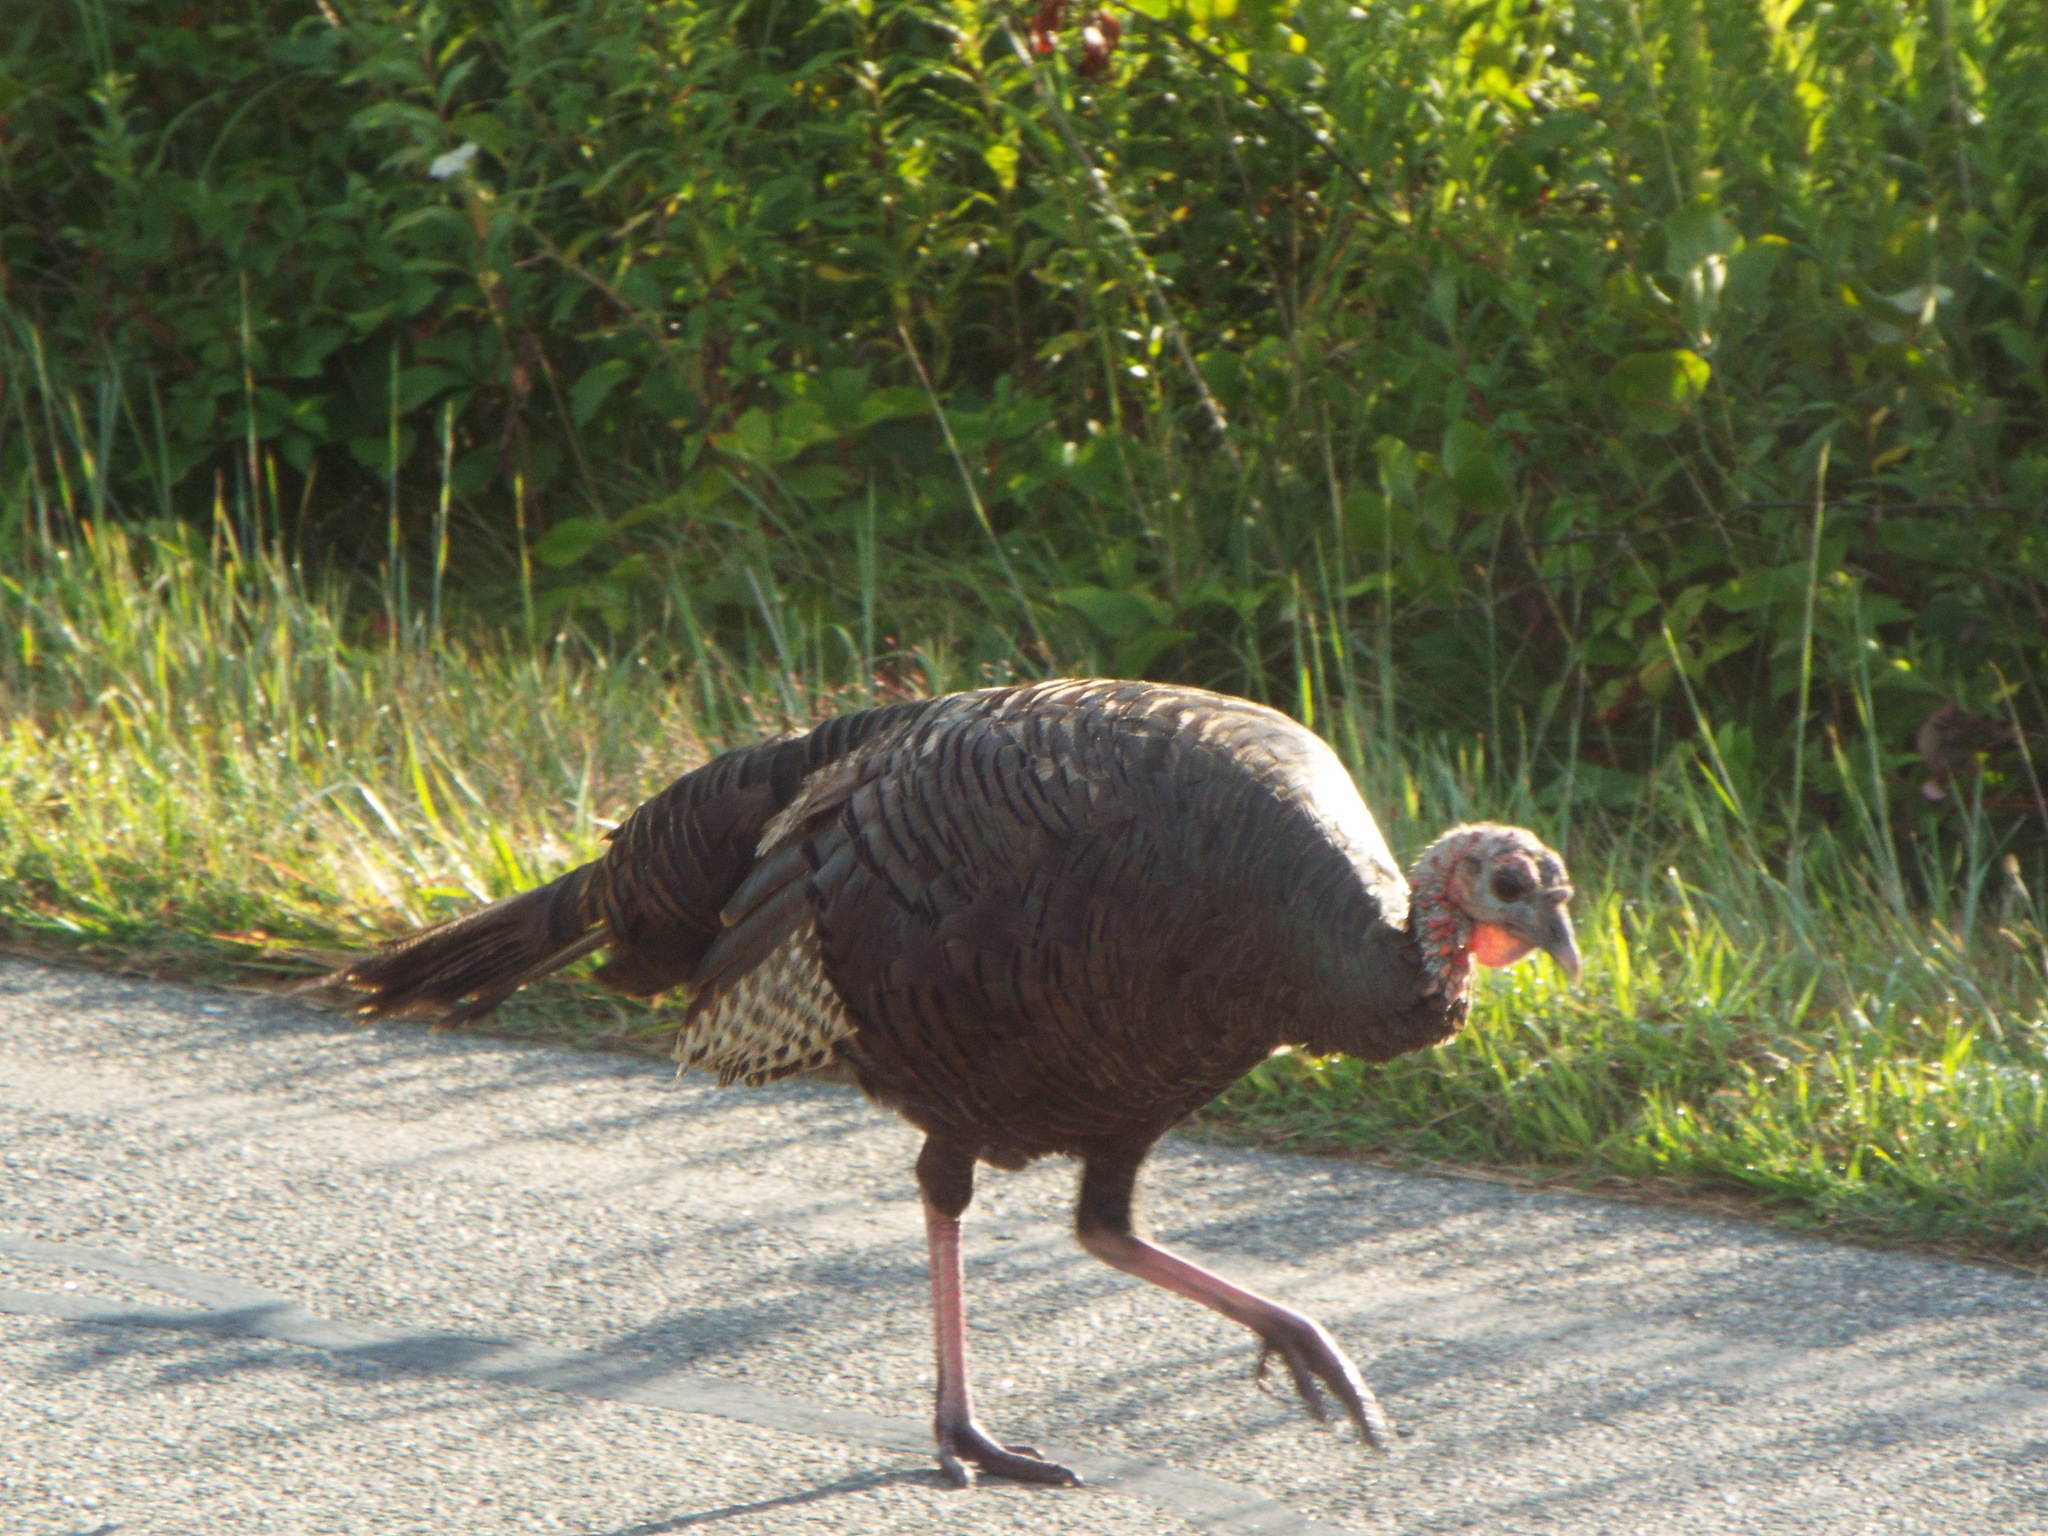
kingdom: Animalia
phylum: Chordata
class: Aves
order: Galliformes
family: Phasianidae
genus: Meleagris
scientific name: Meleagris gallopavo
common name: Wild turkey
